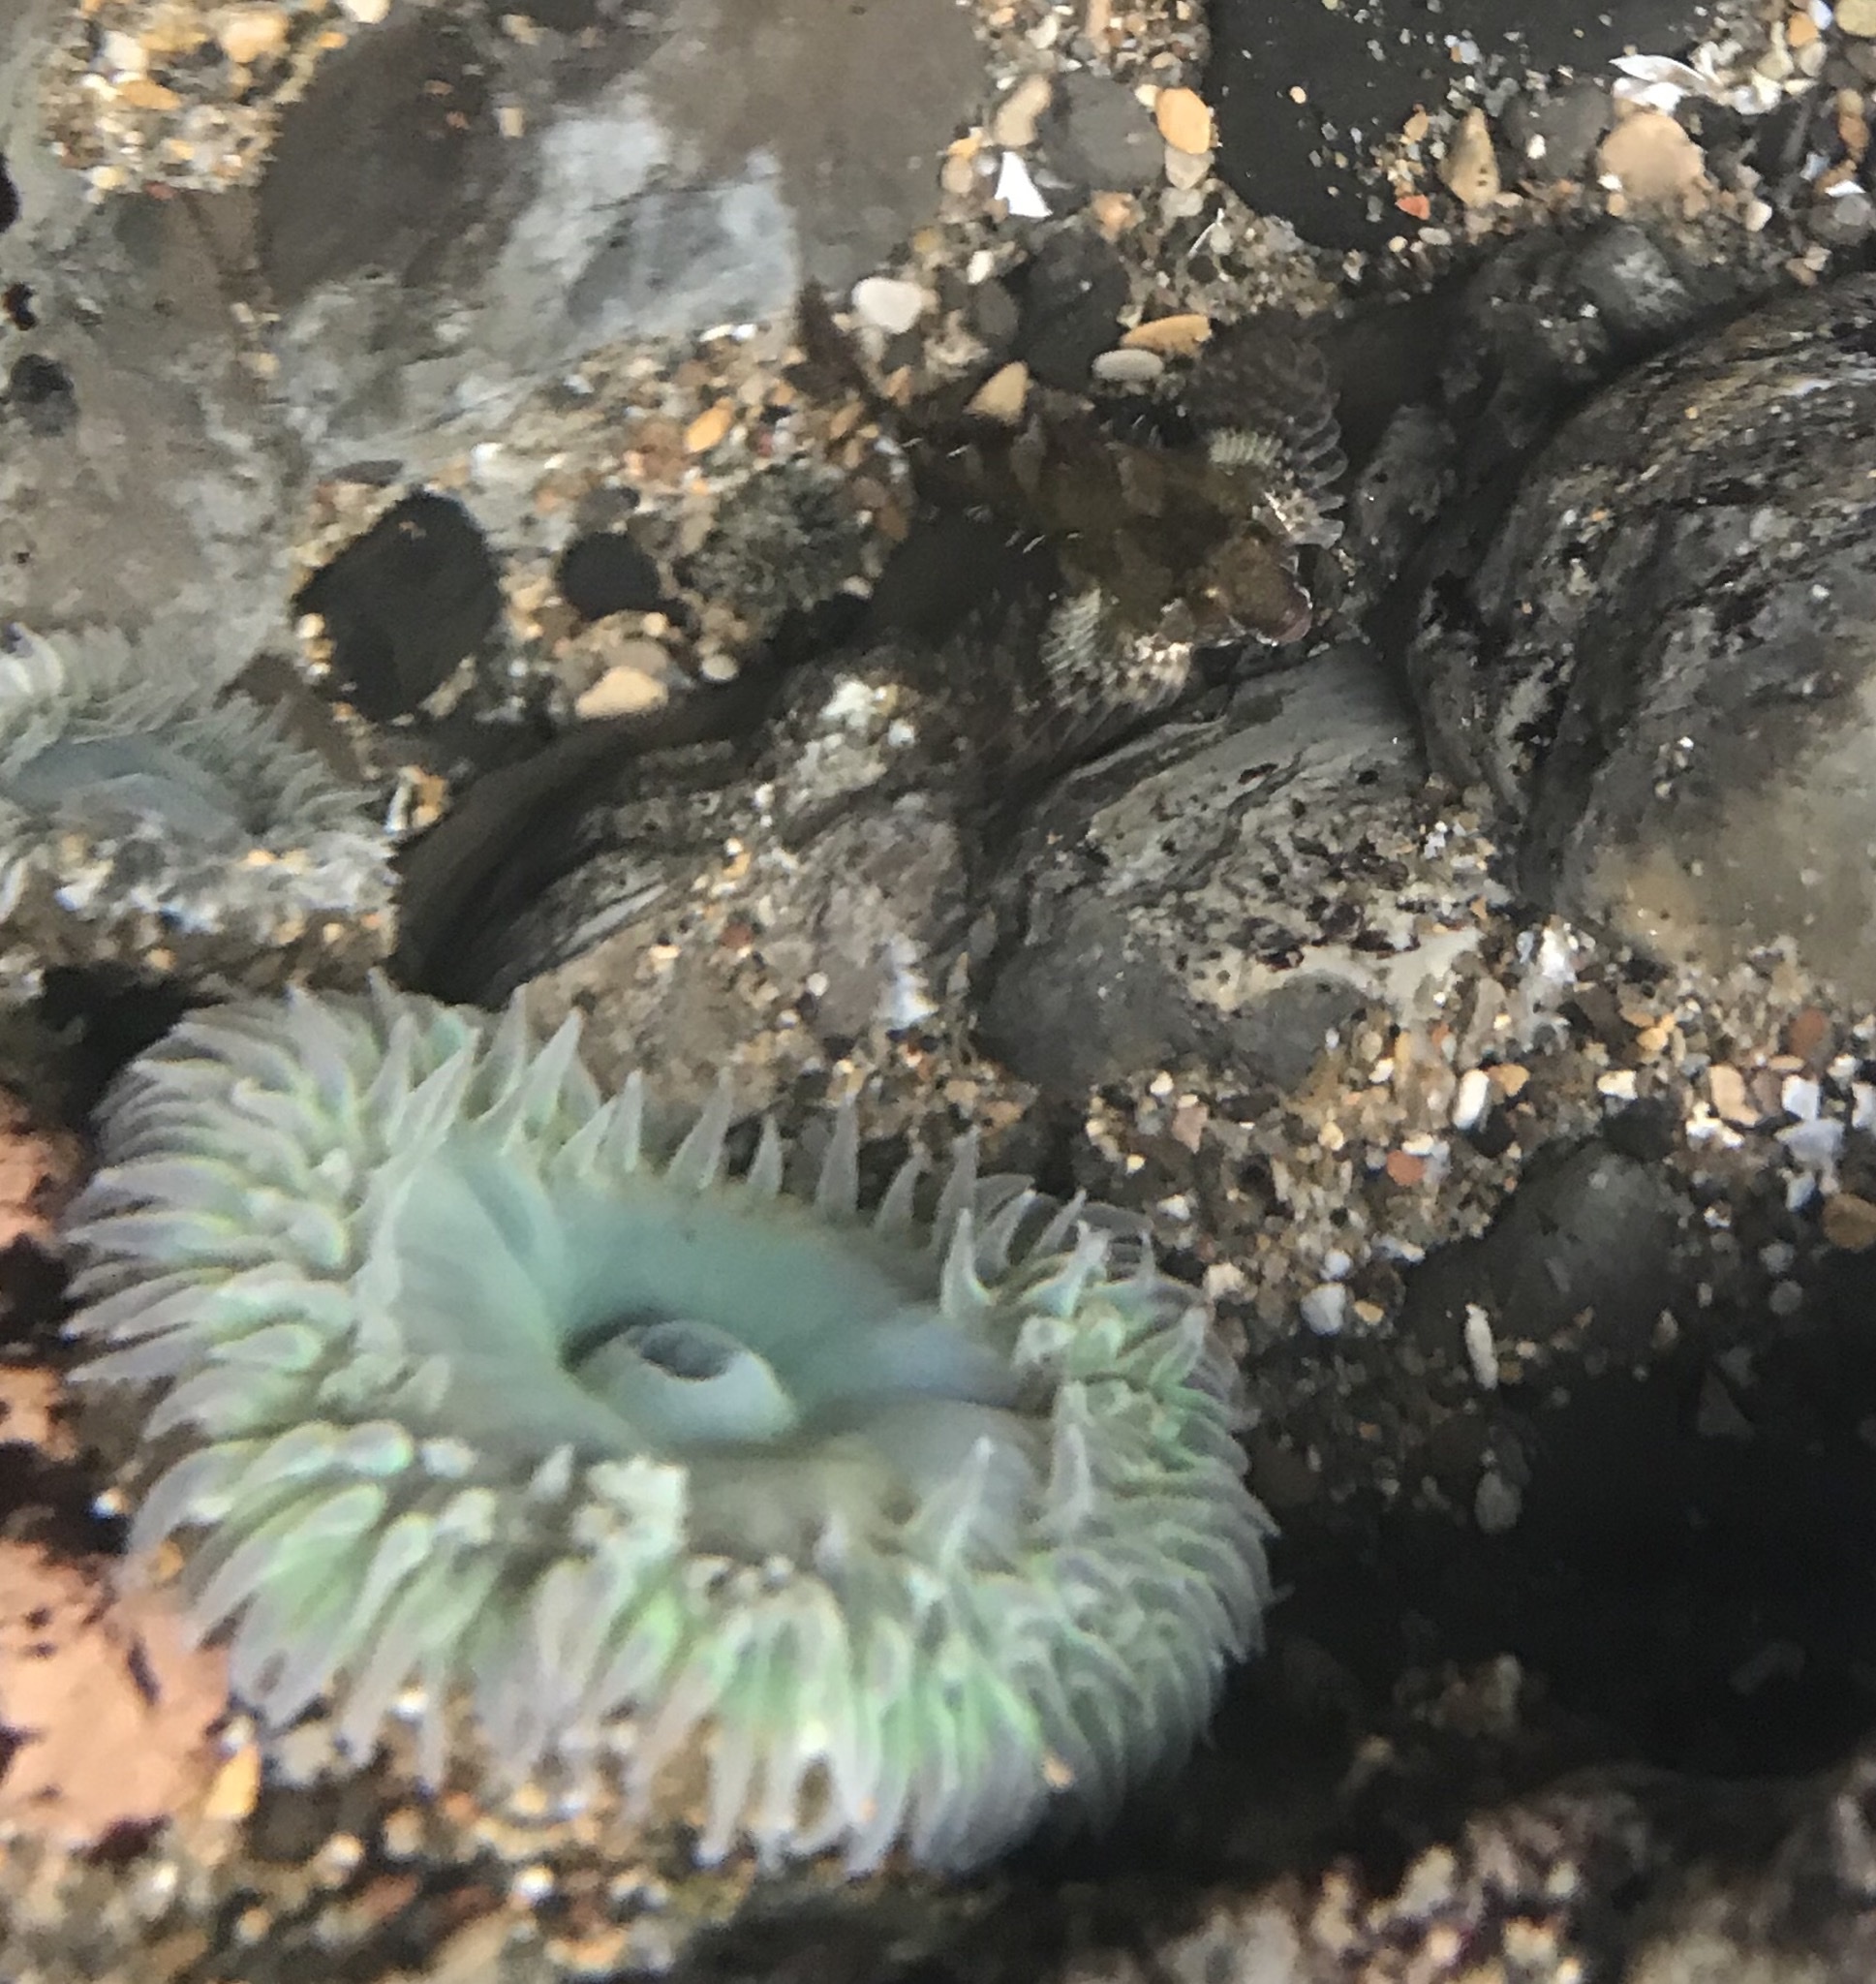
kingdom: Animalia
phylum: Cnidaria
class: Anthozoa
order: Actiniaria
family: Actiniidae
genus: Anthopleura
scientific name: Anthopleura xanthogrammica
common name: Giant green anemone
